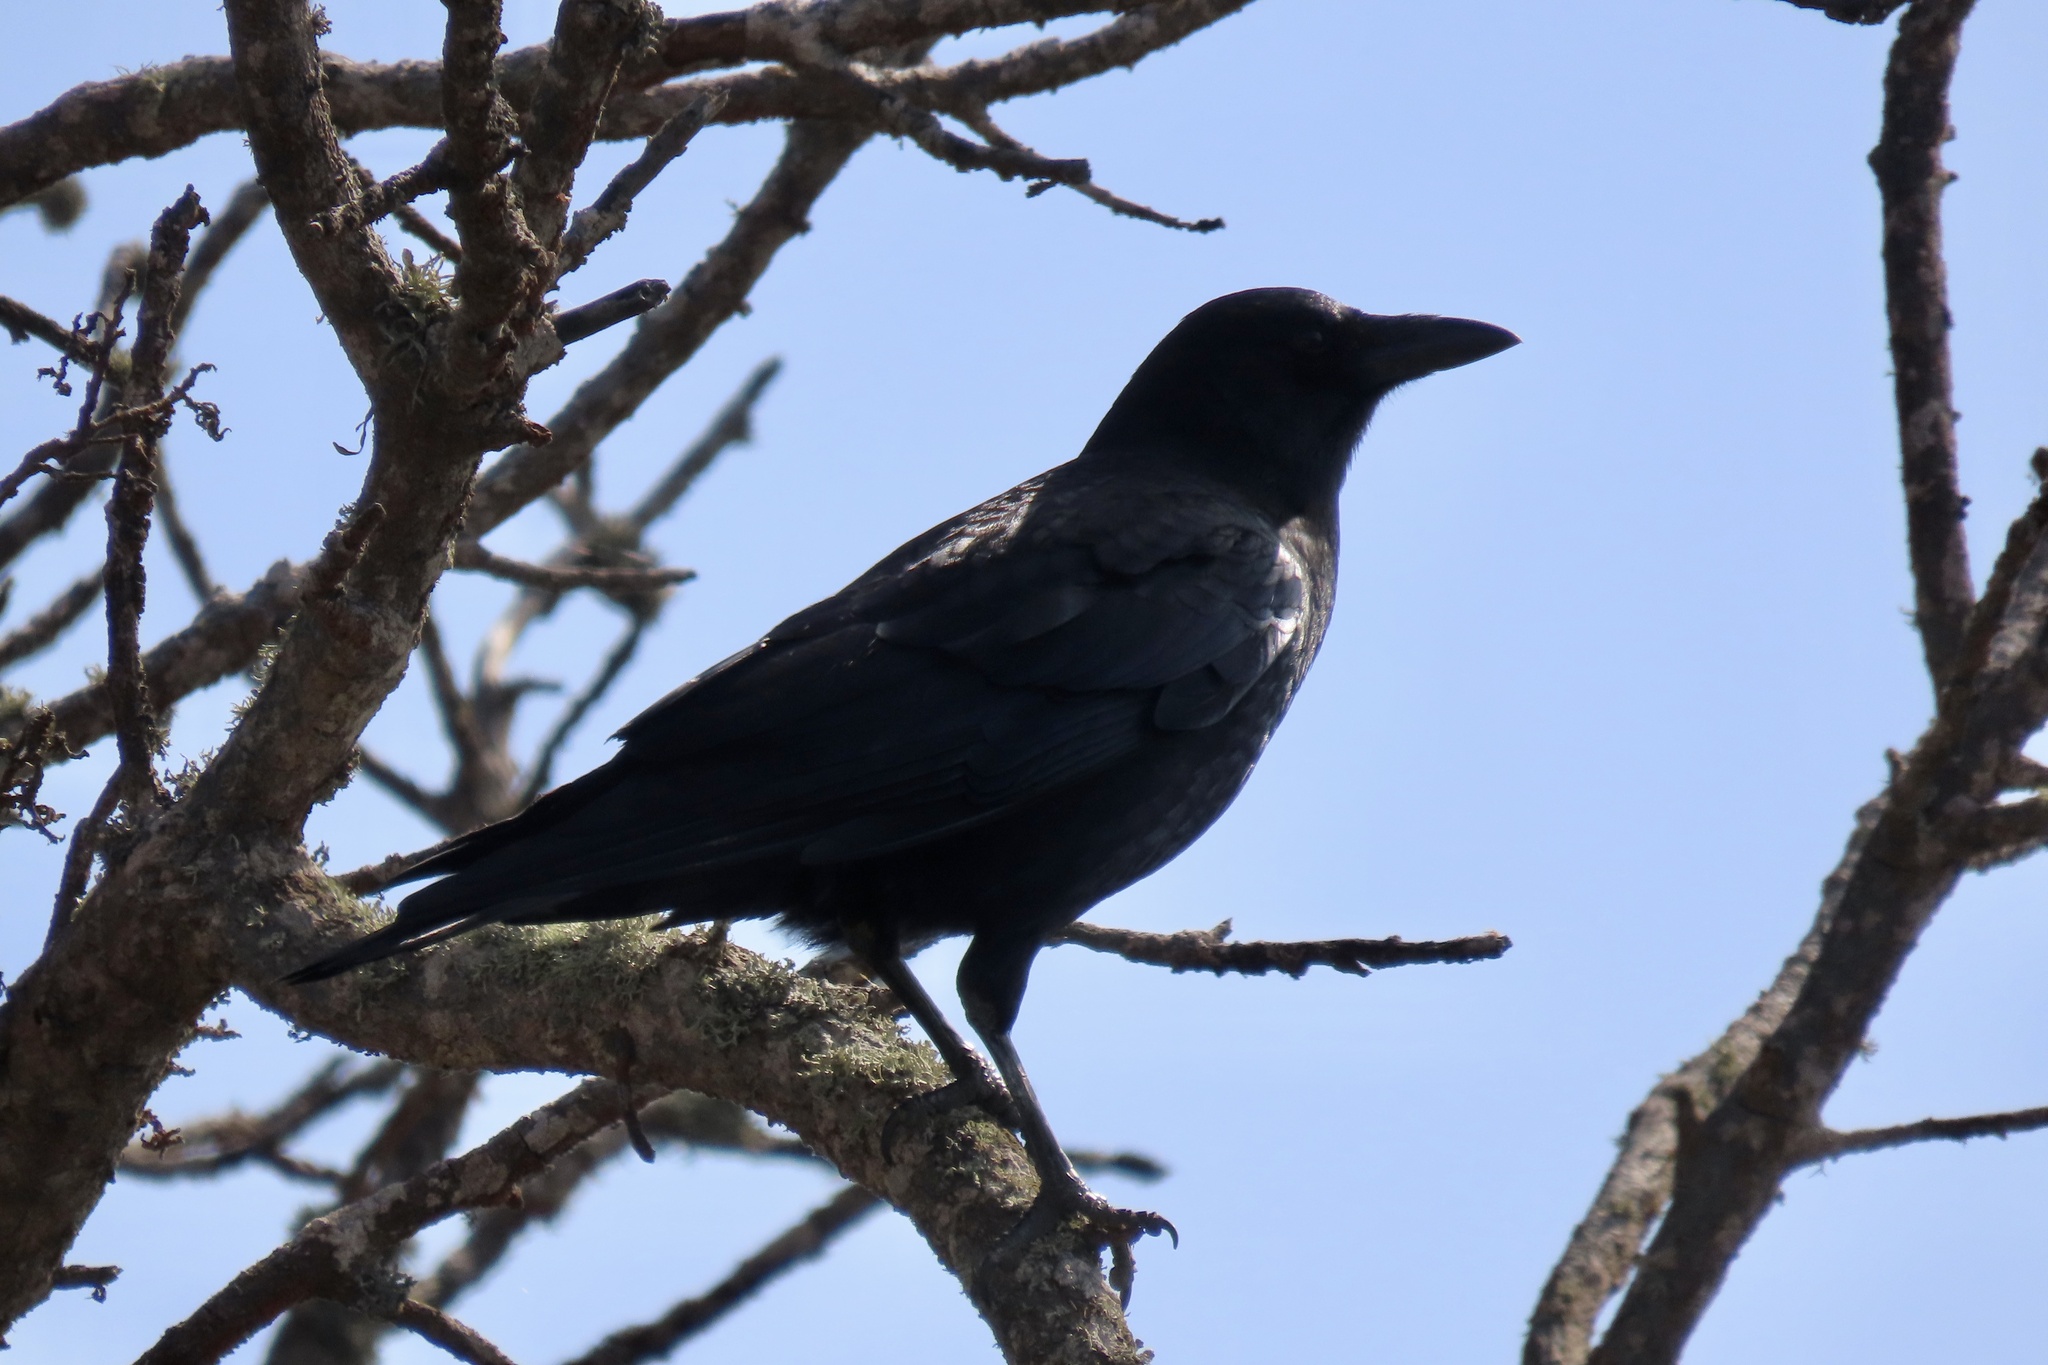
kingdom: Animalia
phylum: Chordata
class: Aves
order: Passeriformes
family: Corvidae
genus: Corvus
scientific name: Corvus brachyrhynchos
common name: American crow
